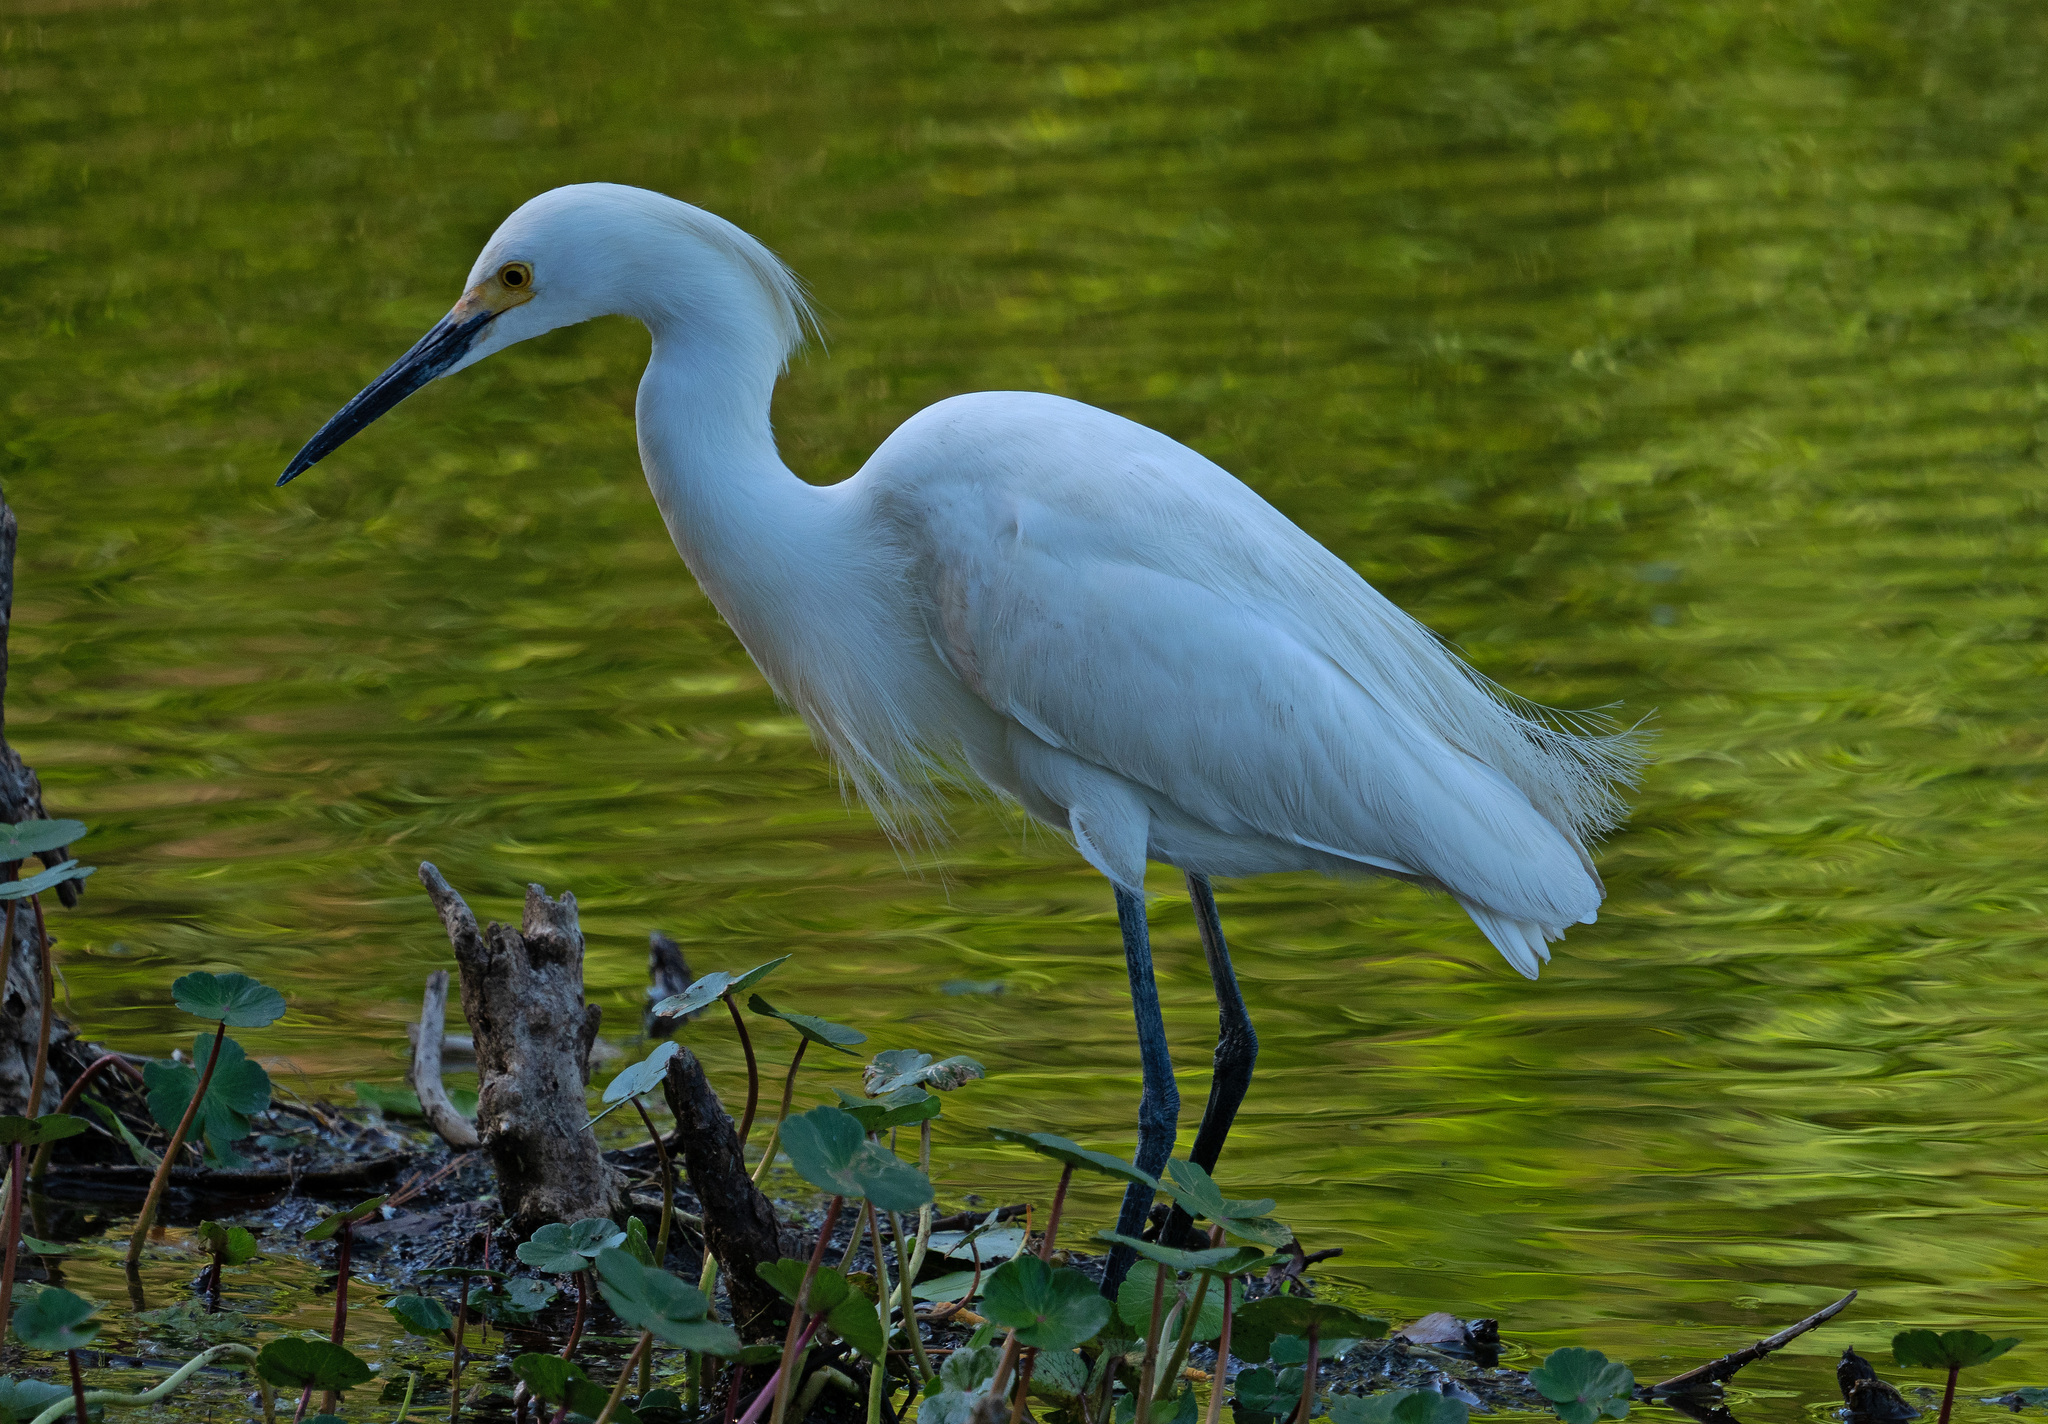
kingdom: Animalia
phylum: Chordata
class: Aves
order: Pelecaniformes
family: Ardeidae
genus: Egretta
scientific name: Egretta thula
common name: Snowy egret
